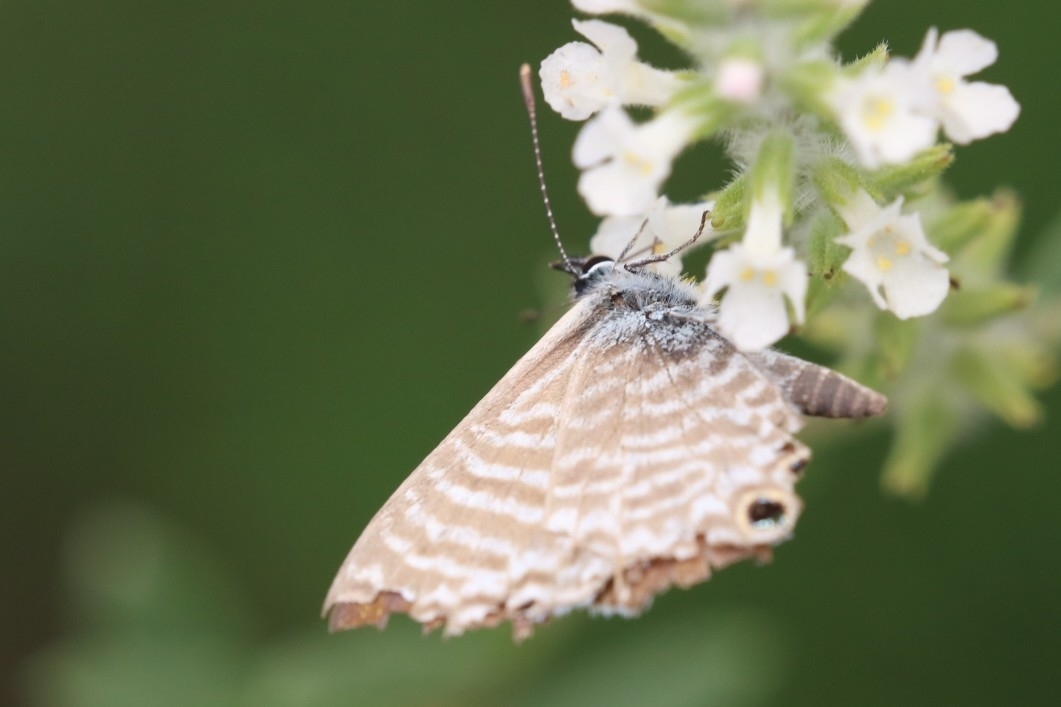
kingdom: Animalia
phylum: Arthropoda
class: Insecta
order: Lepidoptera
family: Lycaenidae
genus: Leptotes
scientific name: Leptotes marina
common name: Marine blue
